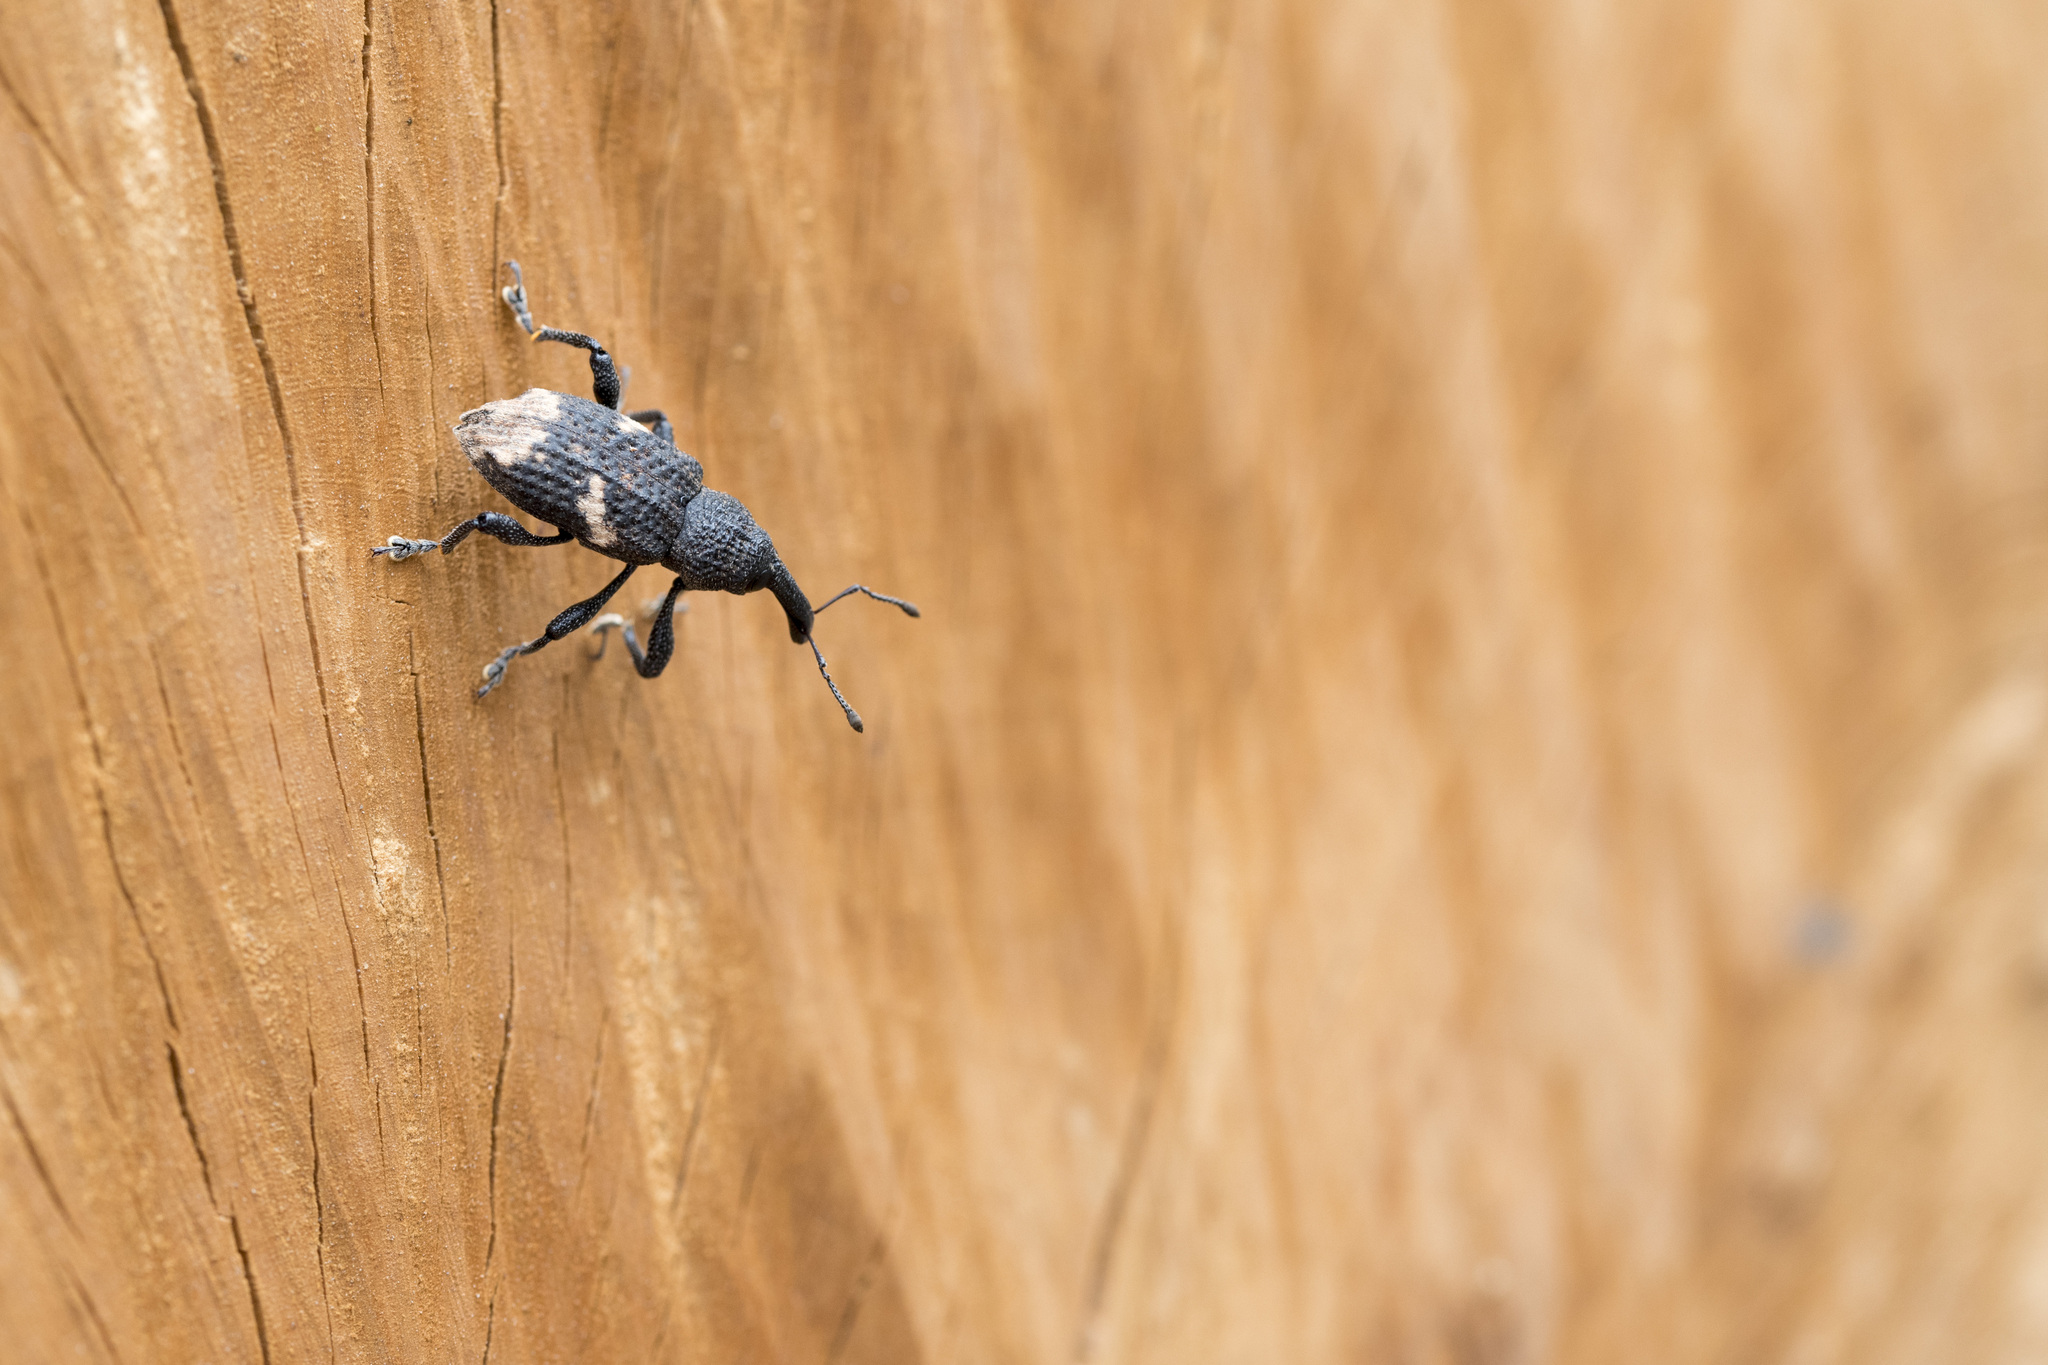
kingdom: Animalia
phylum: Arthropoda
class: Insecta
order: Coleoptera
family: Curculionidae
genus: Pimelocerus
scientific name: Pimelocerus formosanus
